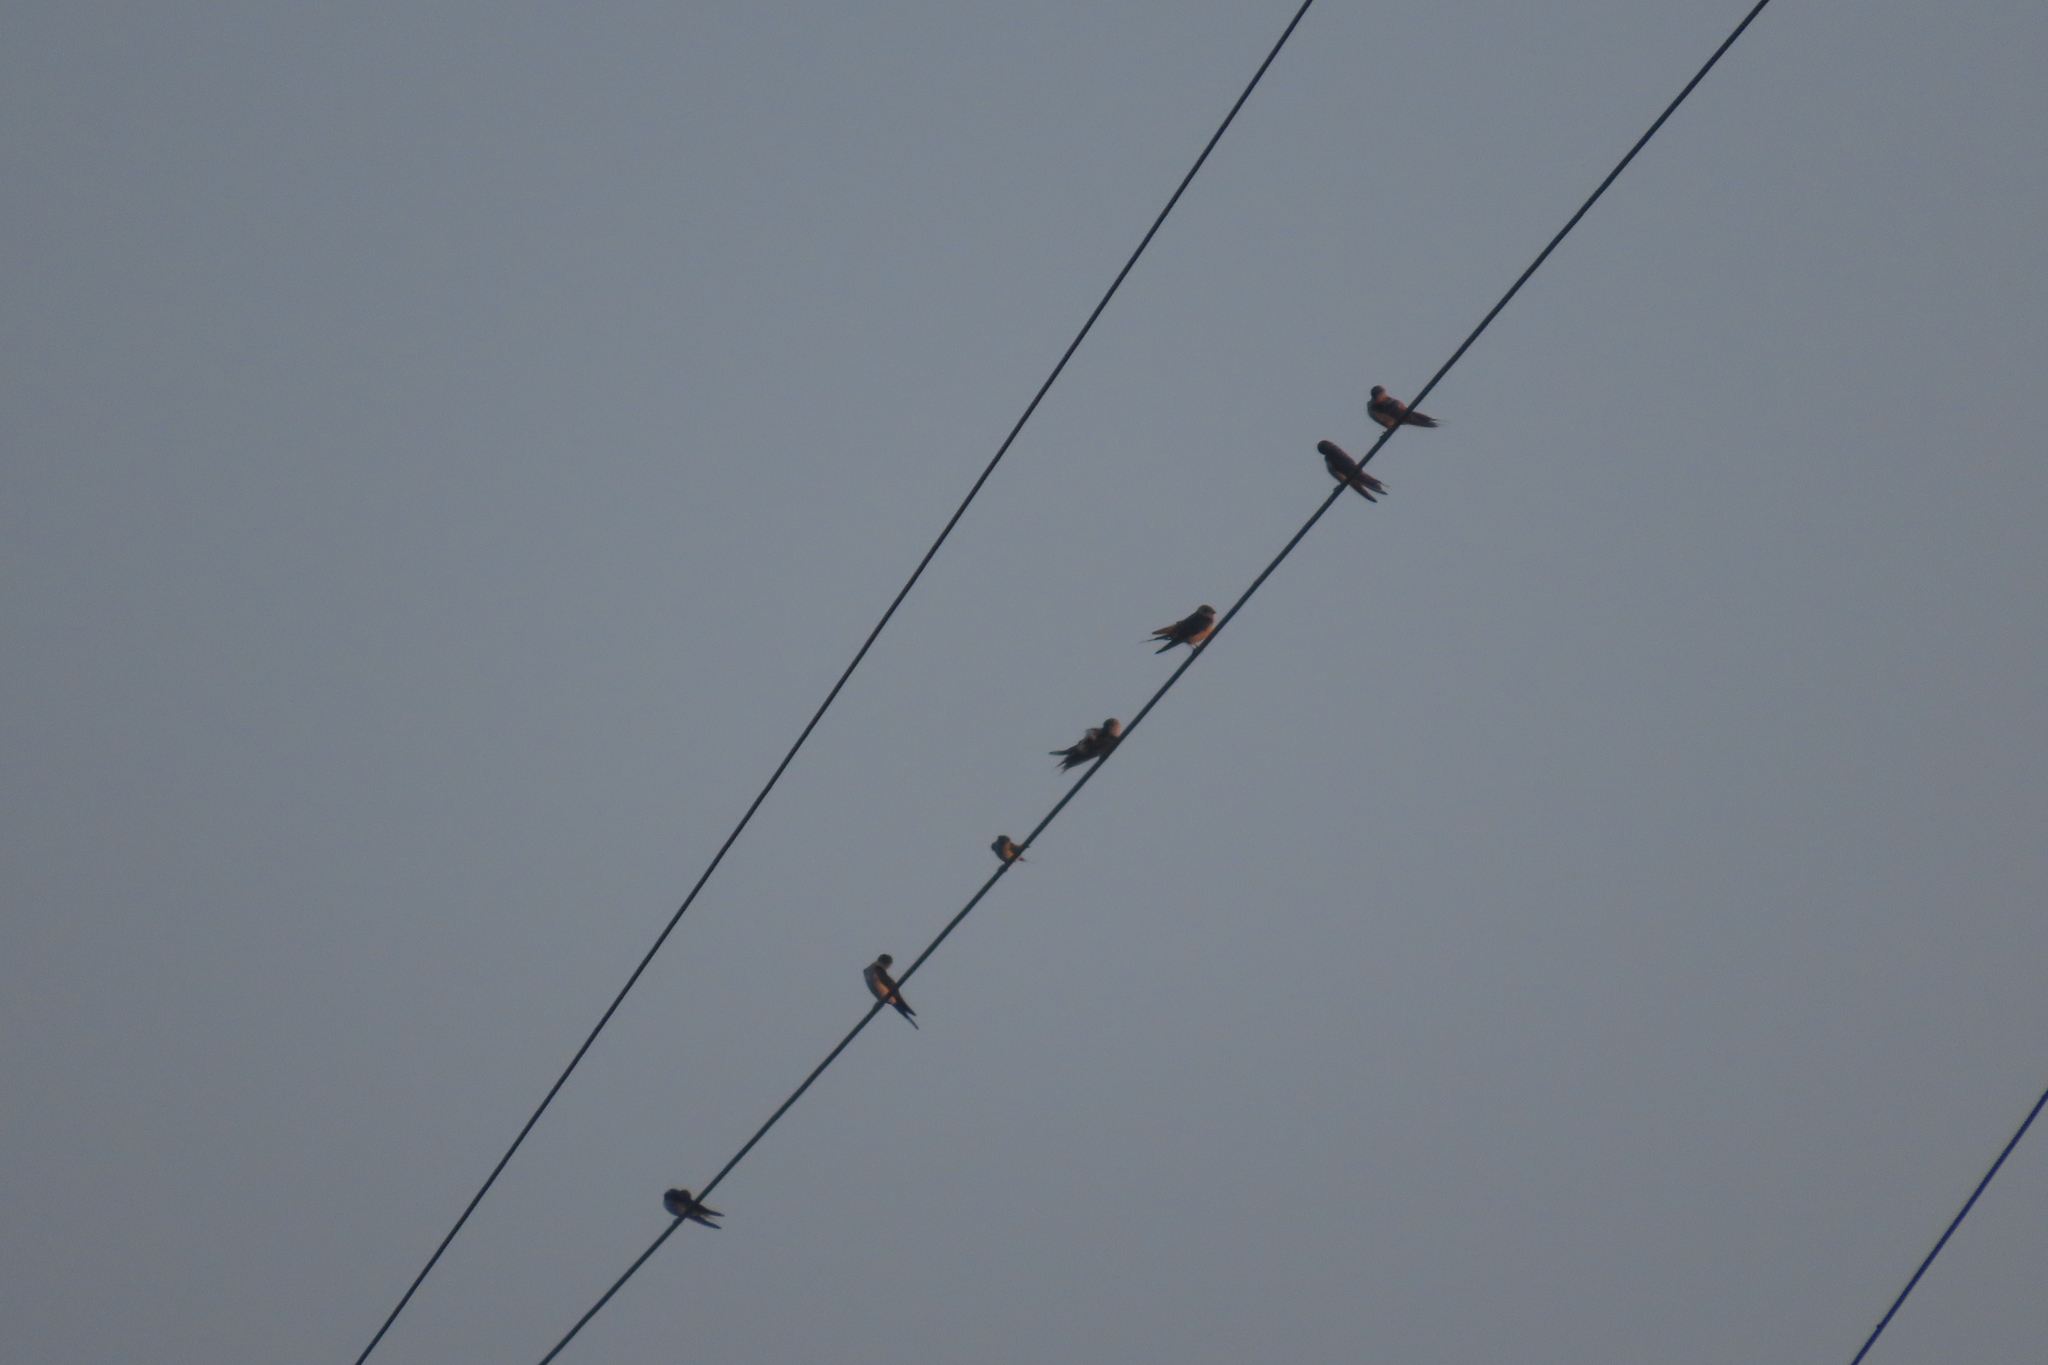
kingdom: Animalia
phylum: Chordata
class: Aves
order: Passeriformes
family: Hirundinidae
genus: Cecropis
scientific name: Cecropis daurica
